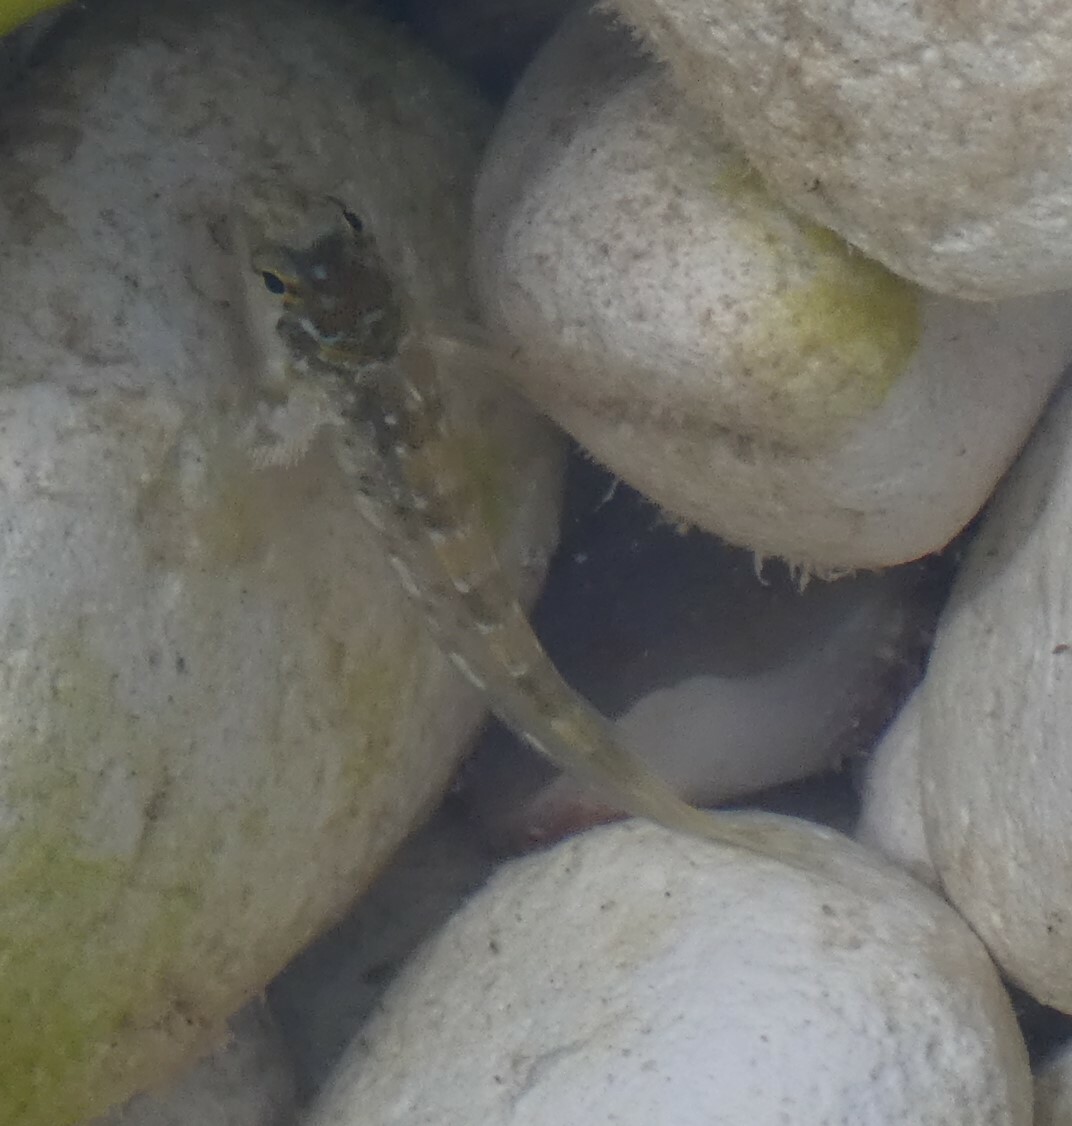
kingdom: Animalia
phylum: Chordata
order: Perciformes
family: Blenniidae
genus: Lipophrys
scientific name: Lipophrys pholis
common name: Shanny
